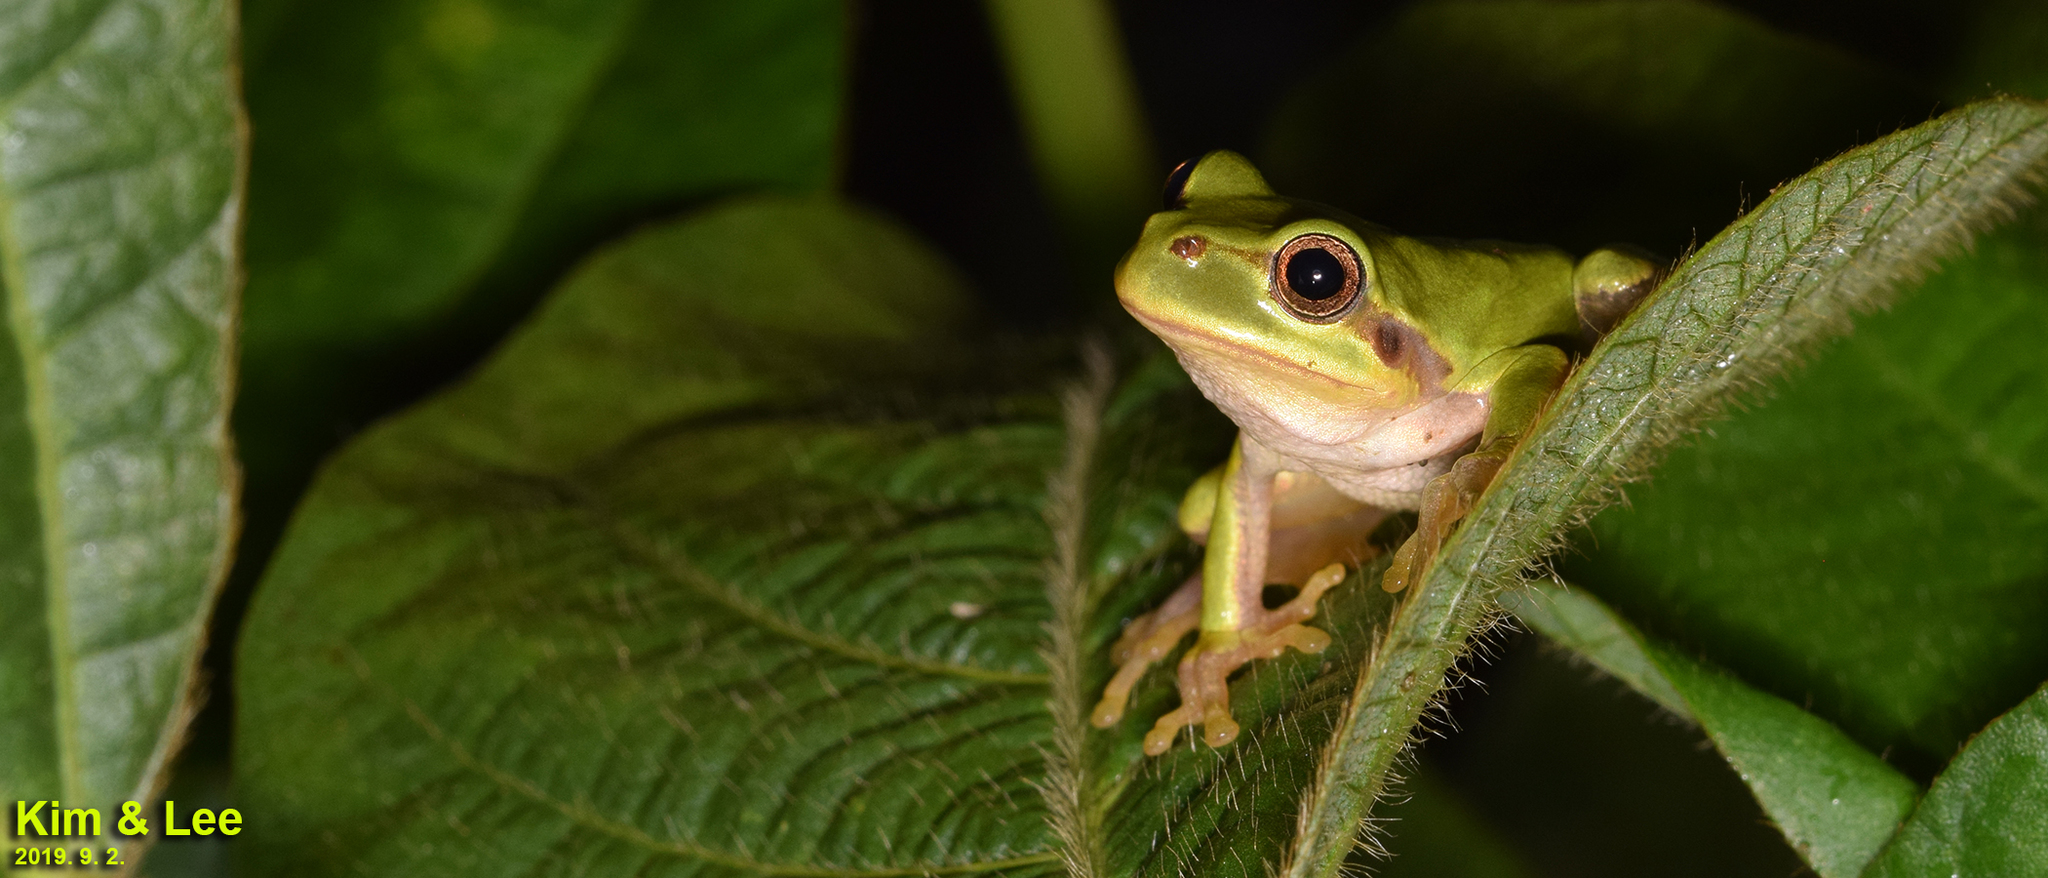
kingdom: Animalia
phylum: Chordata
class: Amphibia
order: Anura
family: Hylidae
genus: Dryophytes
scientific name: Dryophytes japonicus
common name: Japanese treefrog
